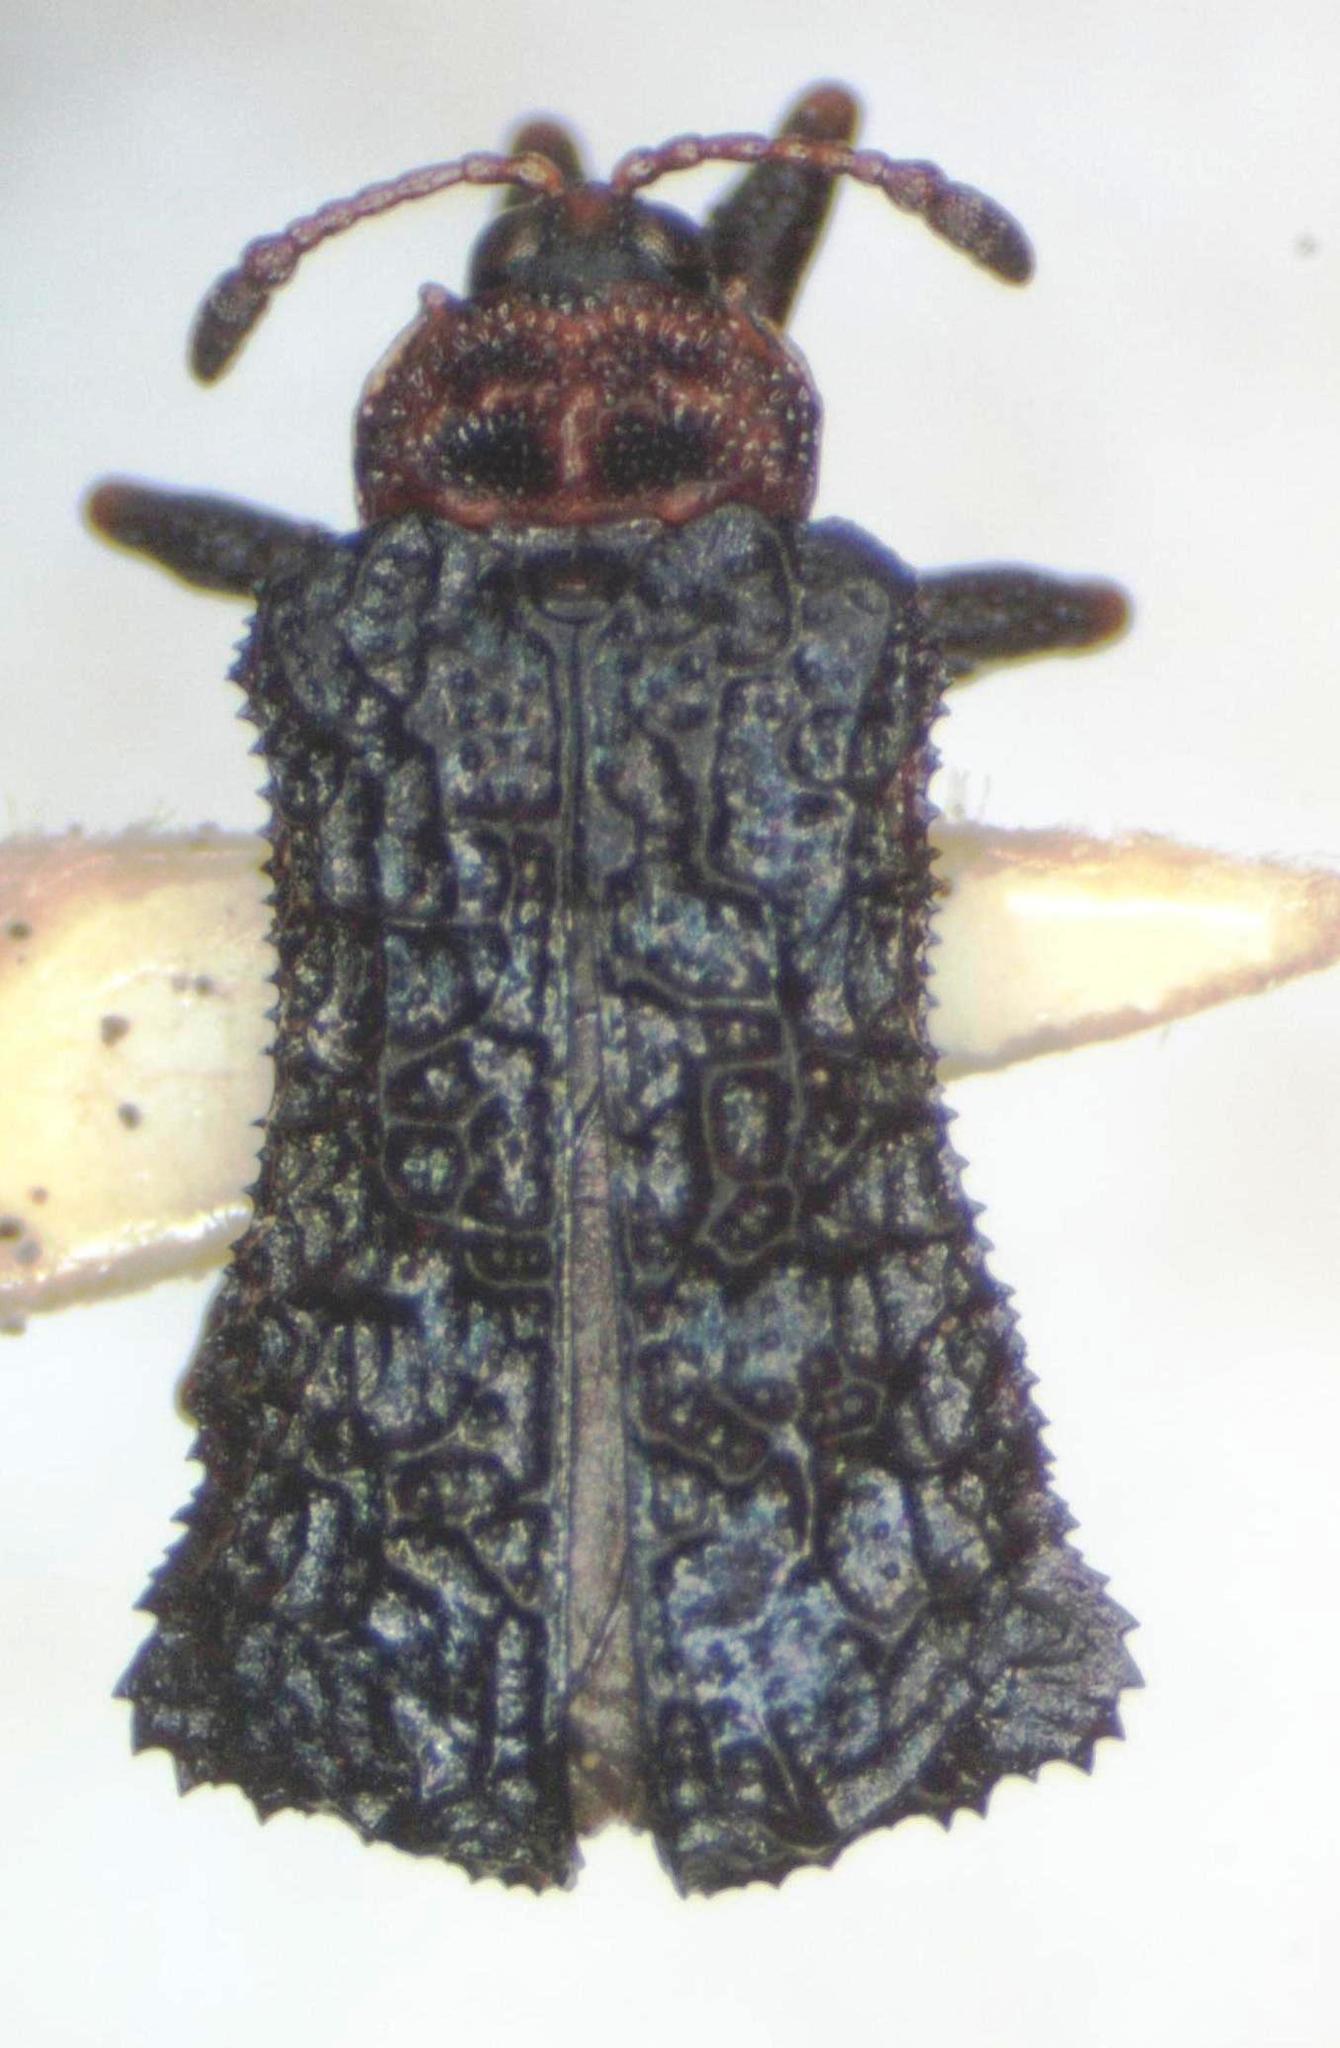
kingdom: Animalia
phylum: Arthropoda
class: Insecta
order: Coleoptera
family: Chrysomelidae
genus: Octotoma
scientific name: Octotoma championi
